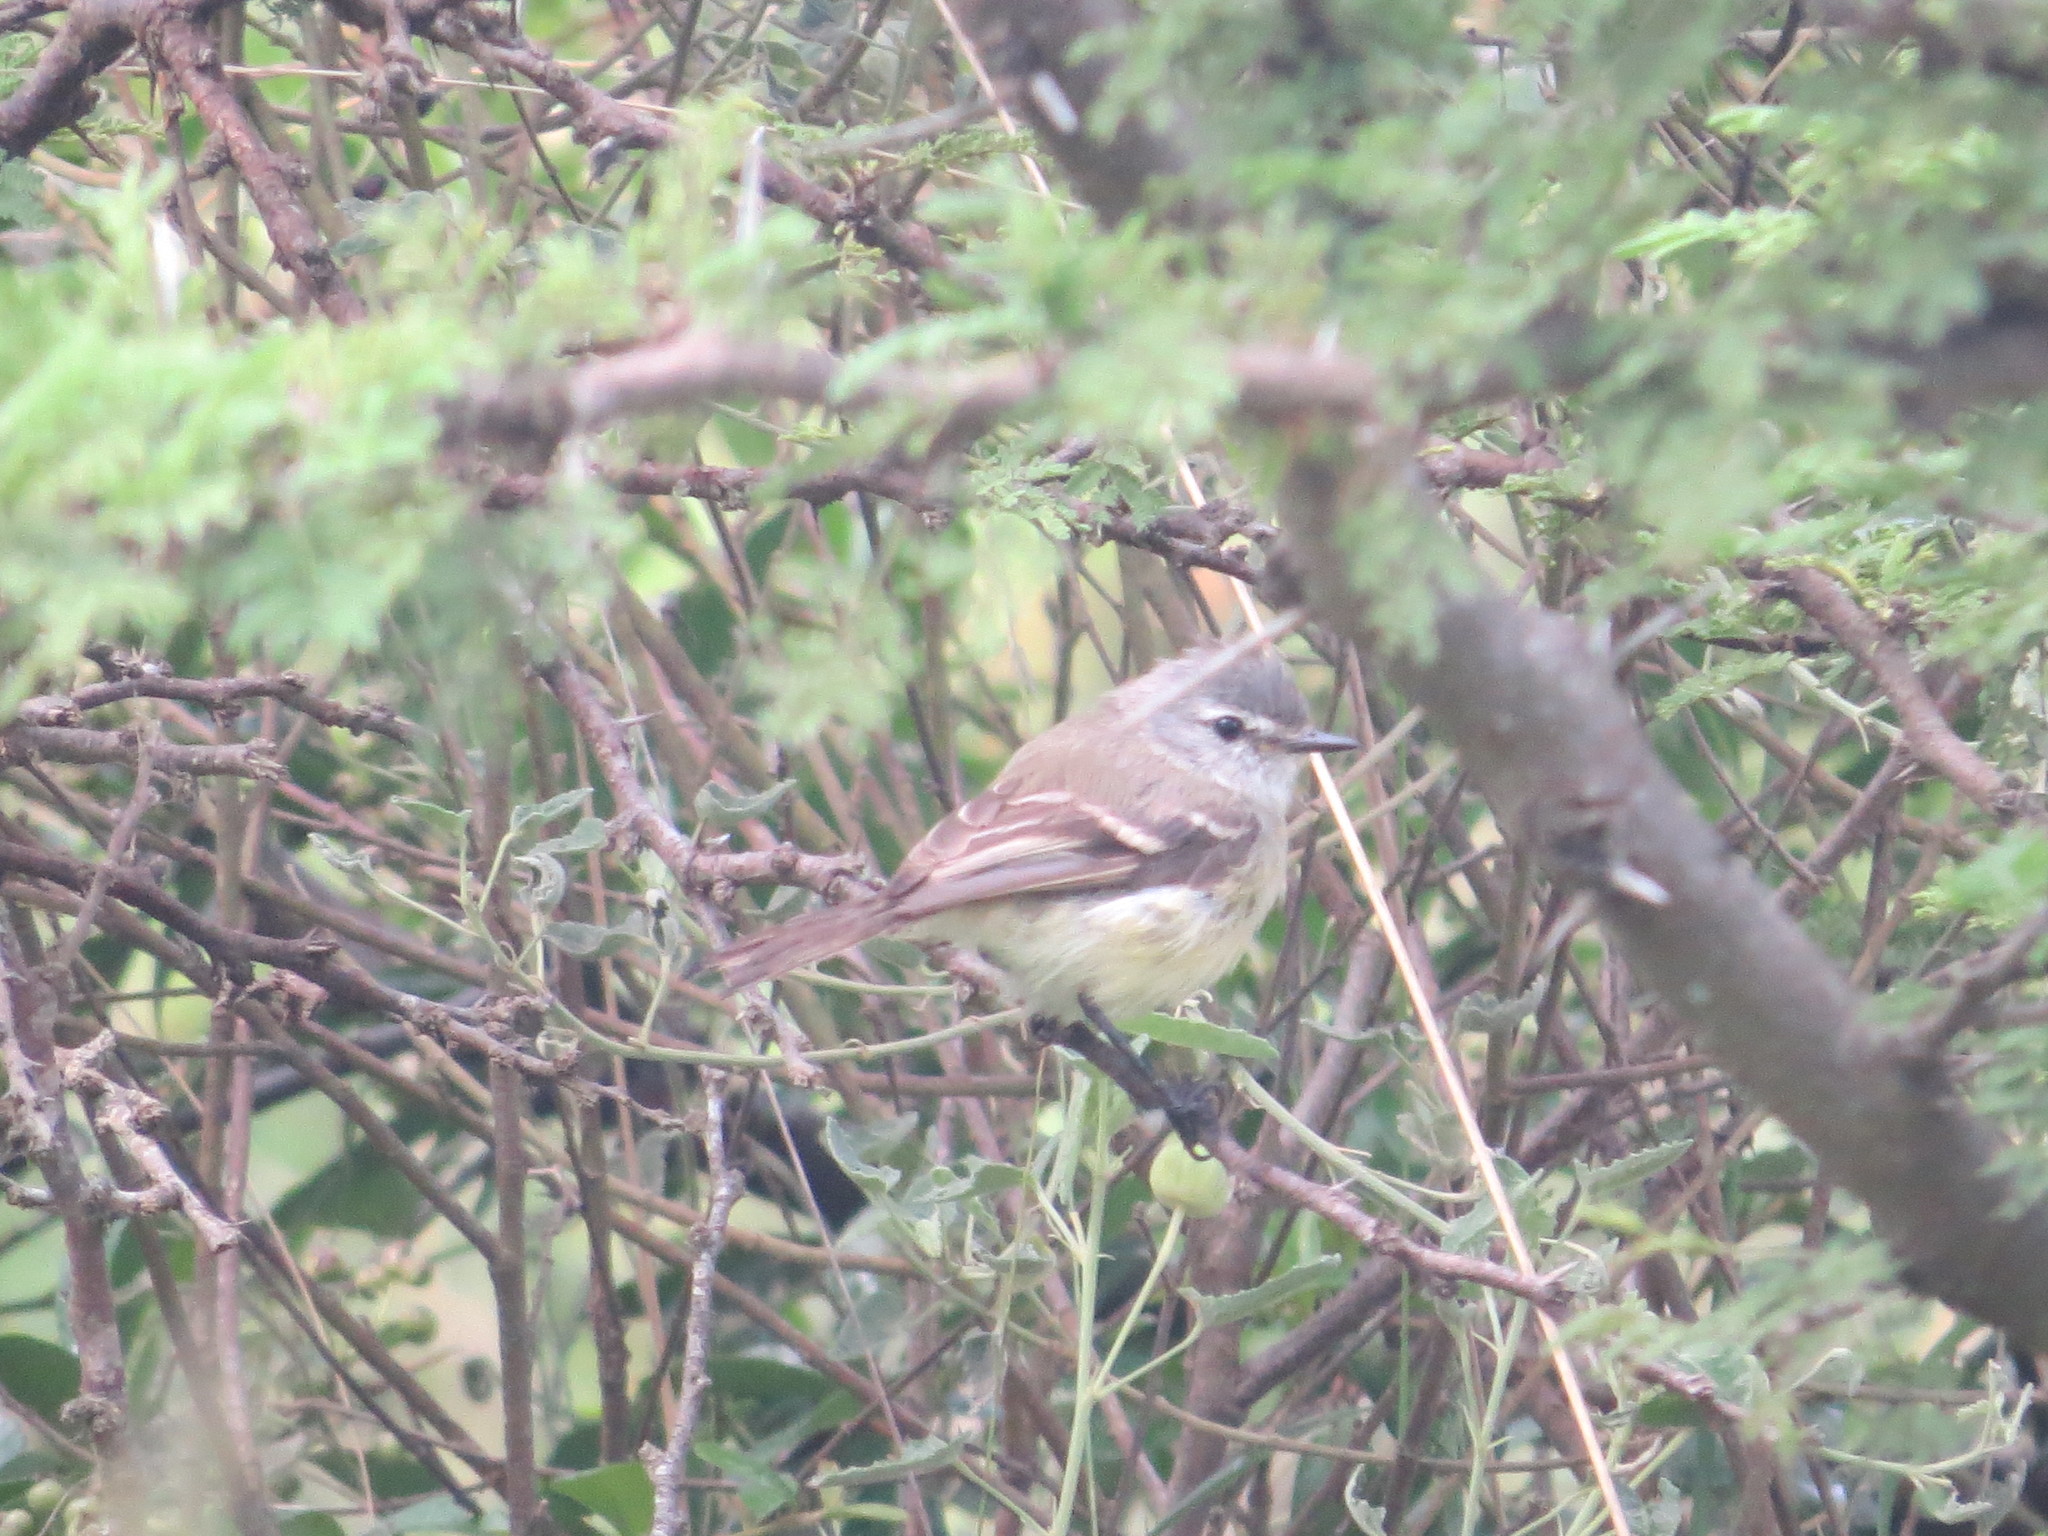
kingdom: Animalia
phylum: Chordata
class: Aves
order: Passeriformes
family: Tyrannidae
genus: Serpophaga
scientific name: Serpophaga griseicapilla
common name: Straneck's tyrannulet
